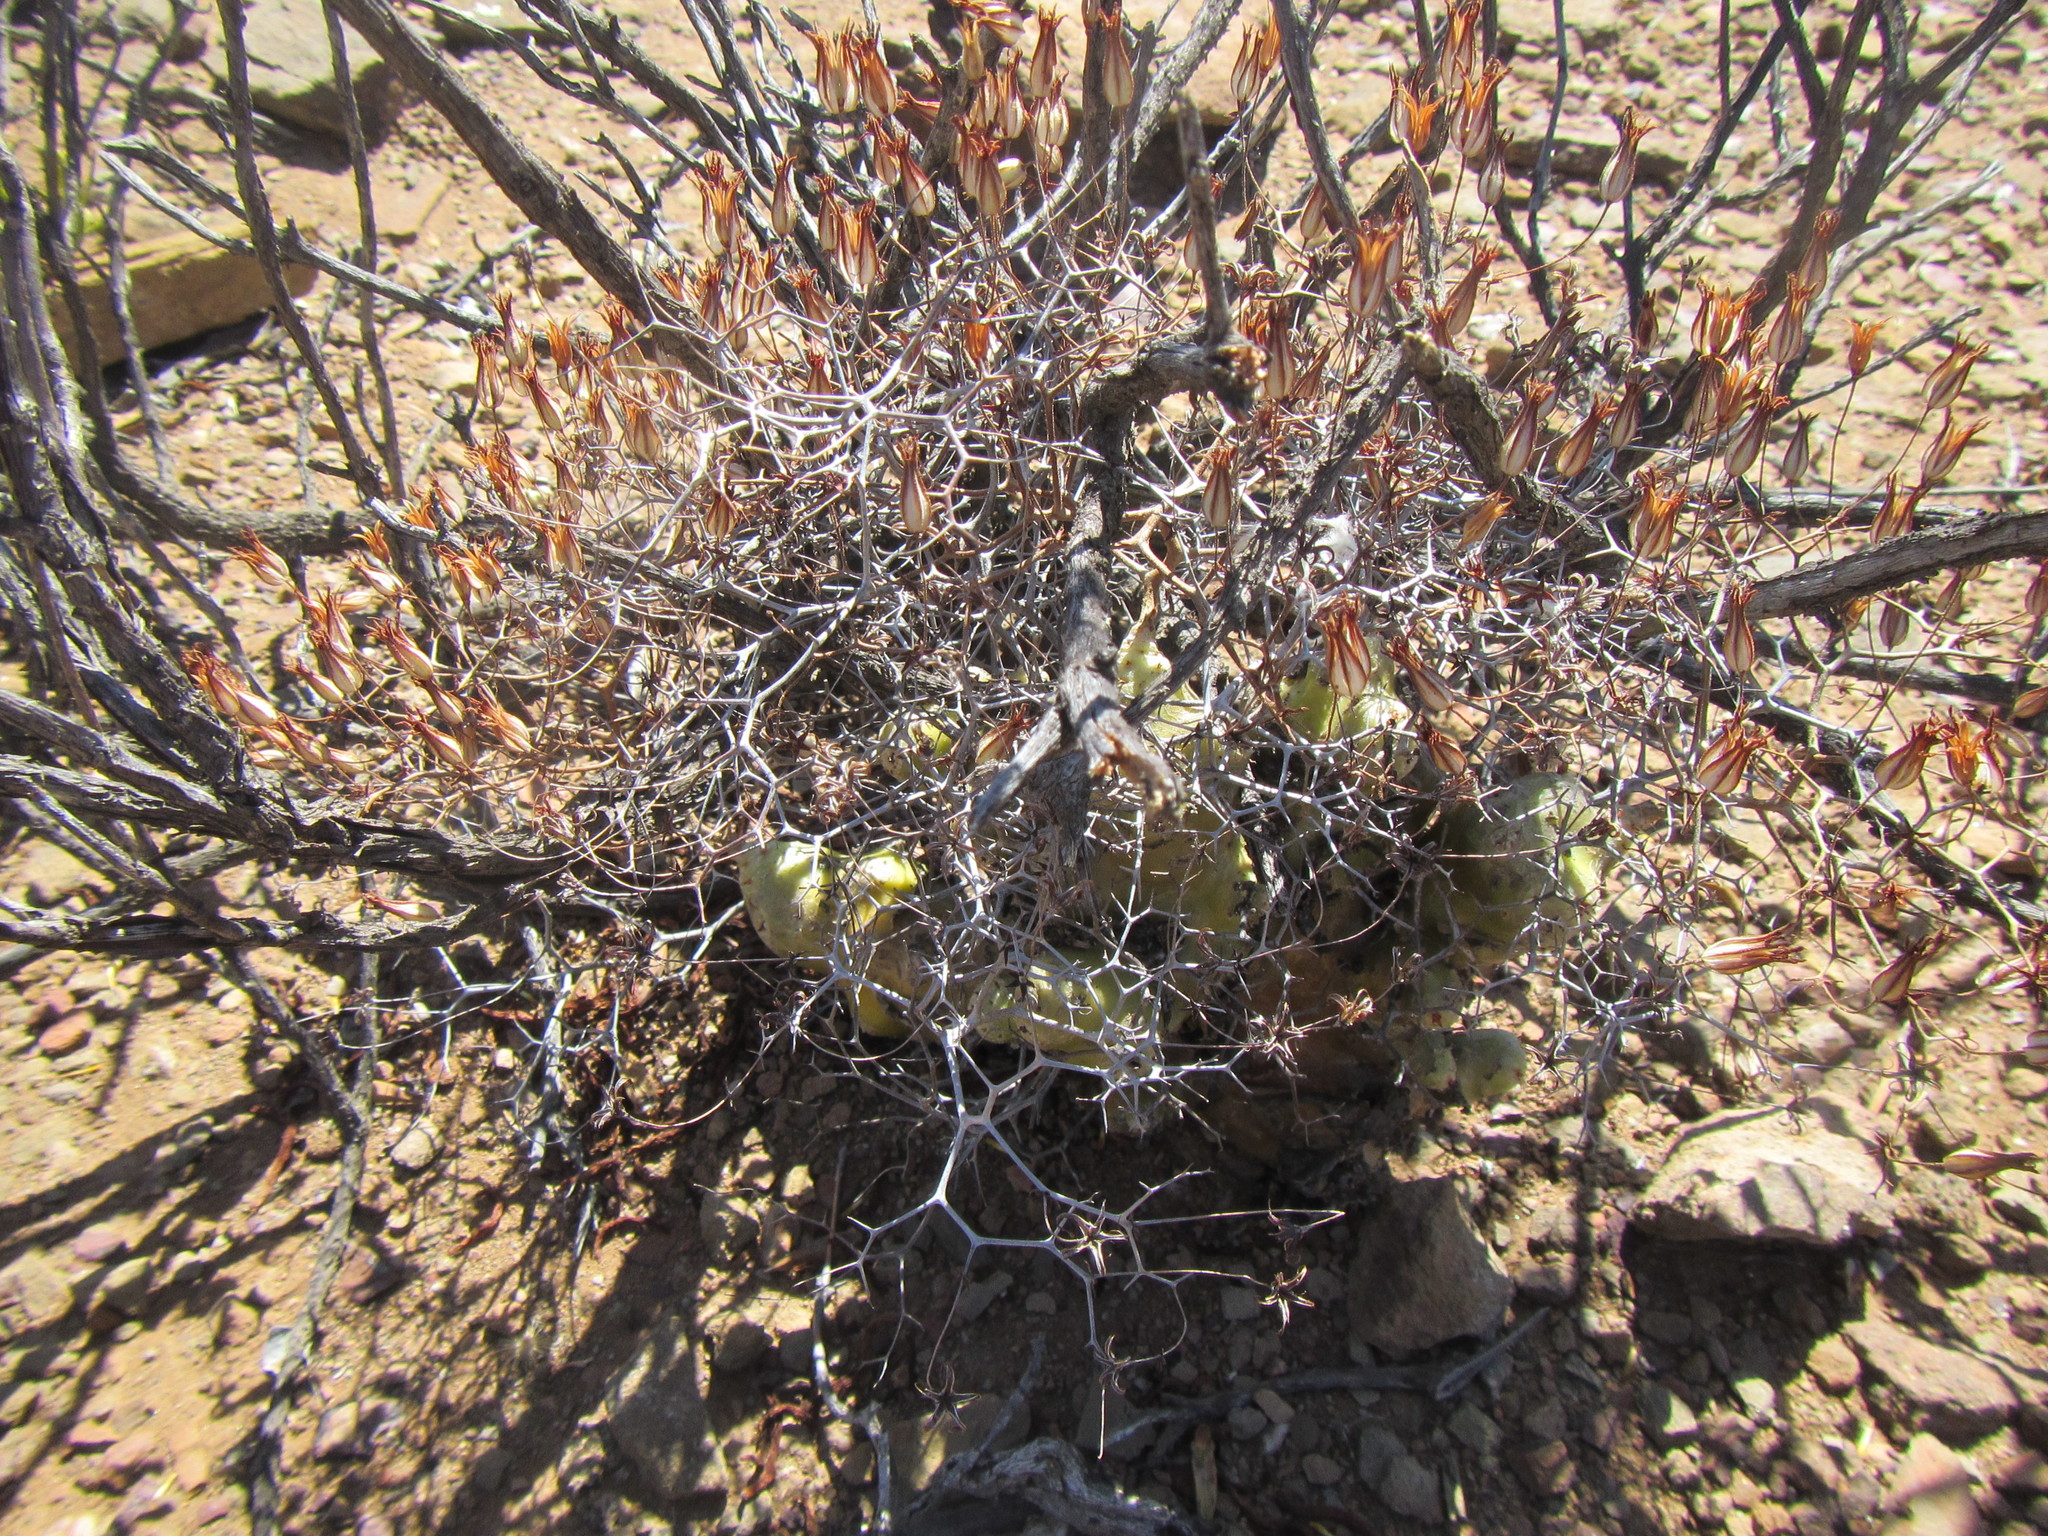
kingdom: Plantae
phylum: Tracheophyta
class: Magnoliopsida
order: Saxifragales
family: Crassulaceae
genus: Tylecodon
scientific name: Tylecodon reticulatus
